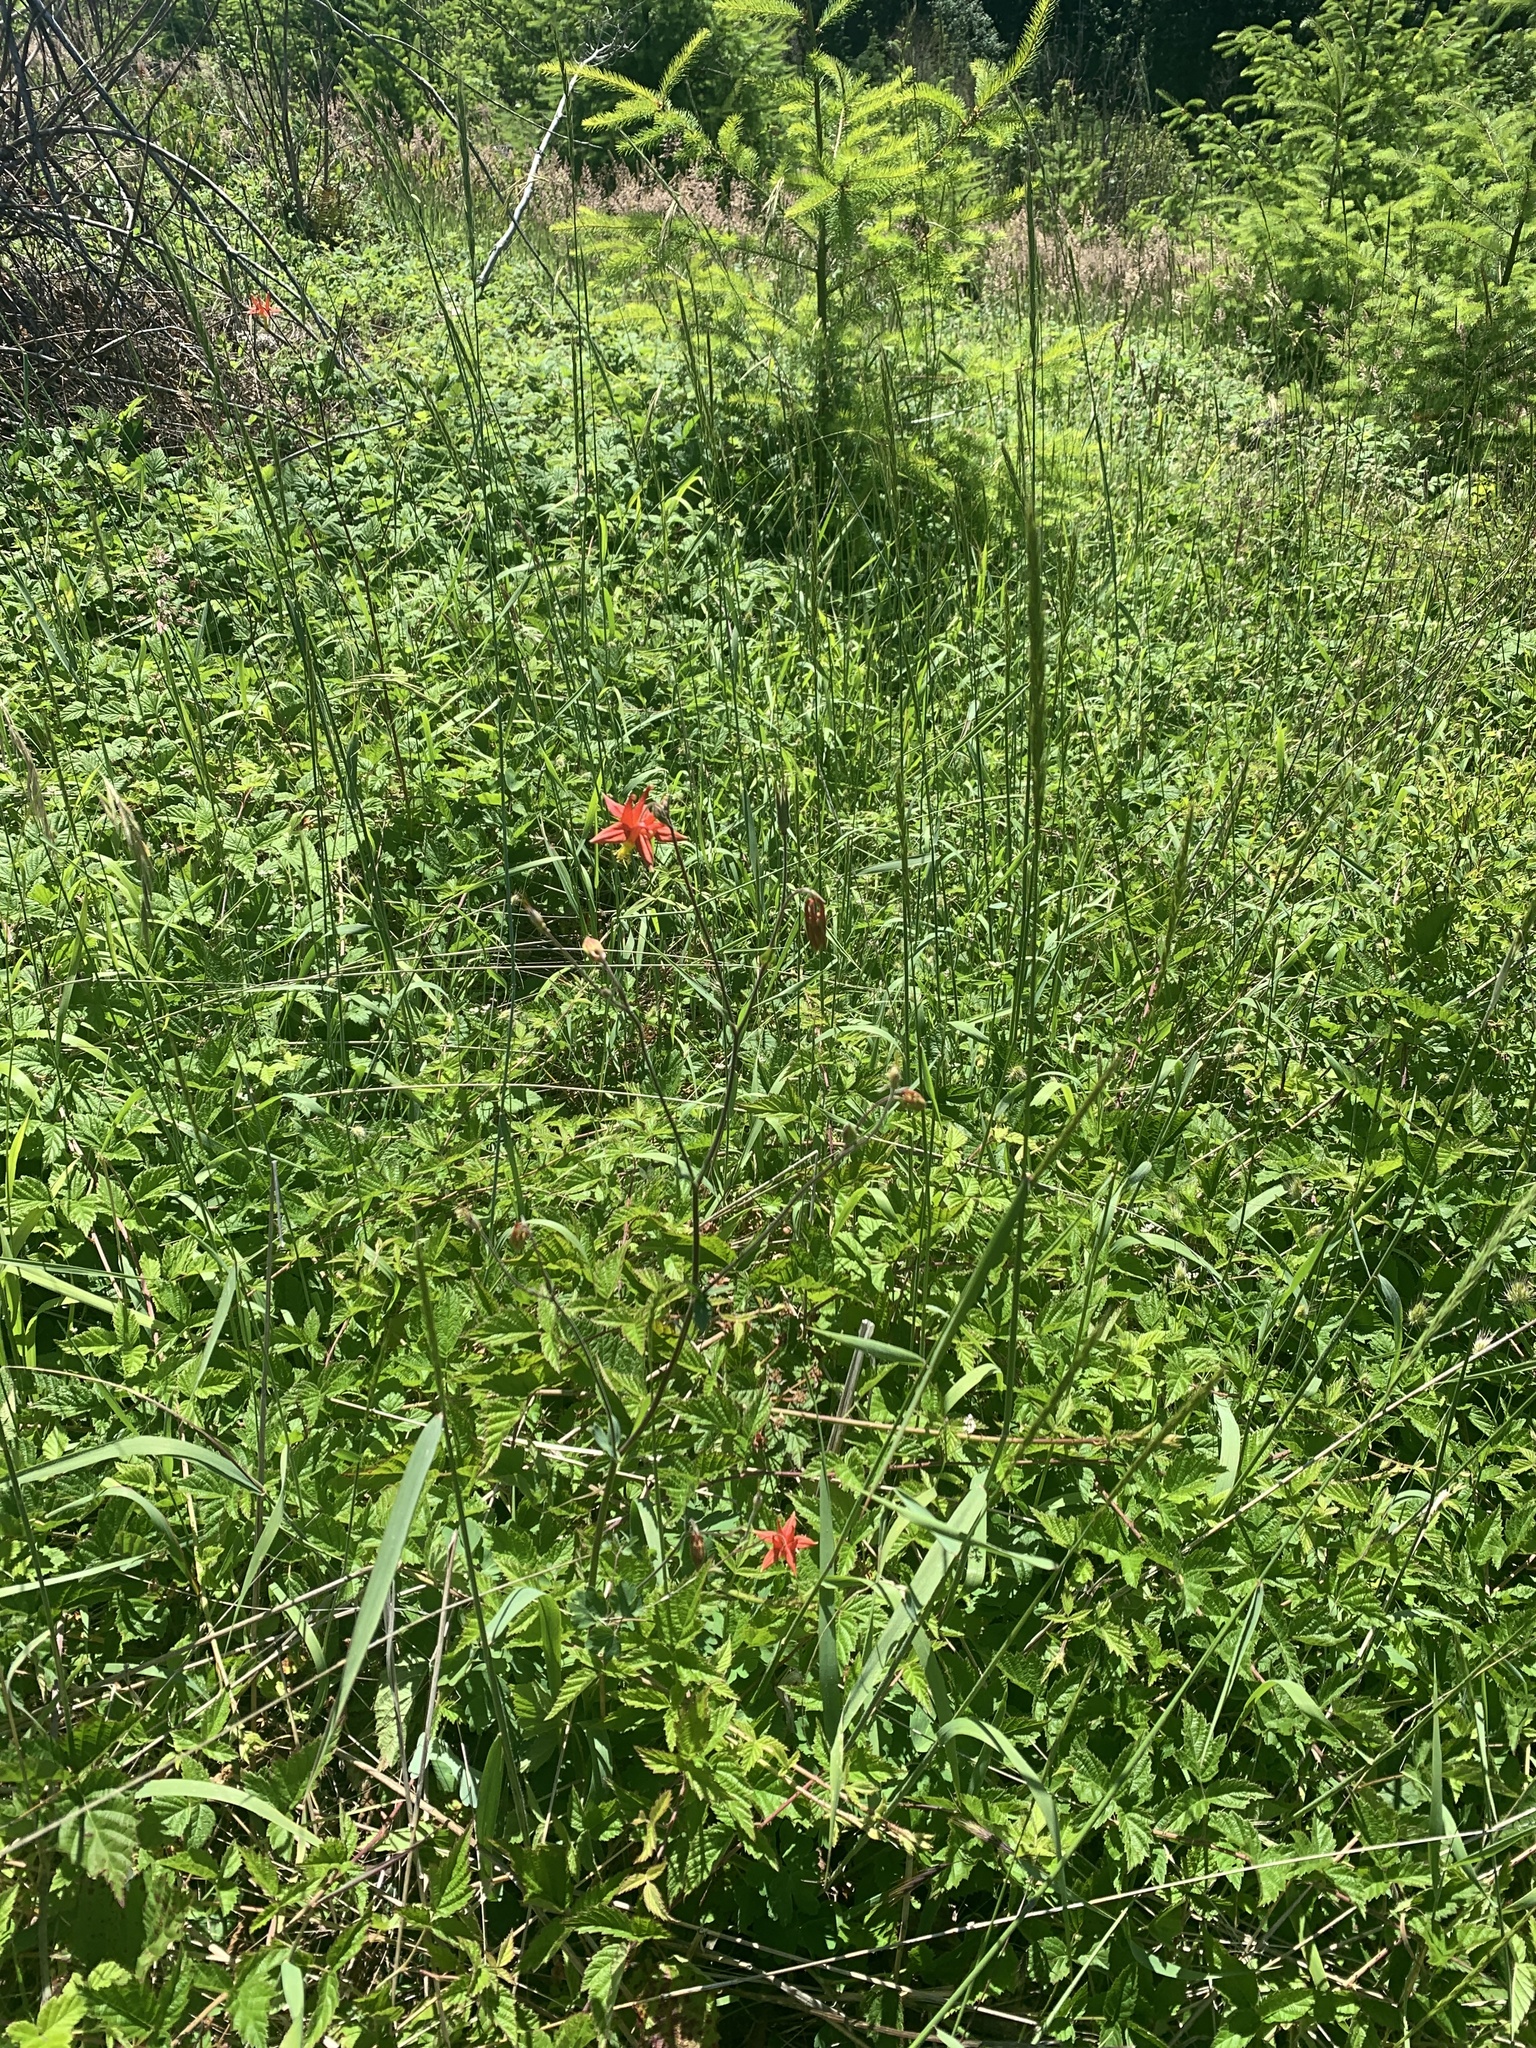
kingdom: Plantae
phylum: Tracheophyta
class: Magnoliopsida
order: Ranunculales
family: Ranunculaceae
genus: Aquilegia
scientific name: Aquilegia formosa
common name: Sitka columbine
